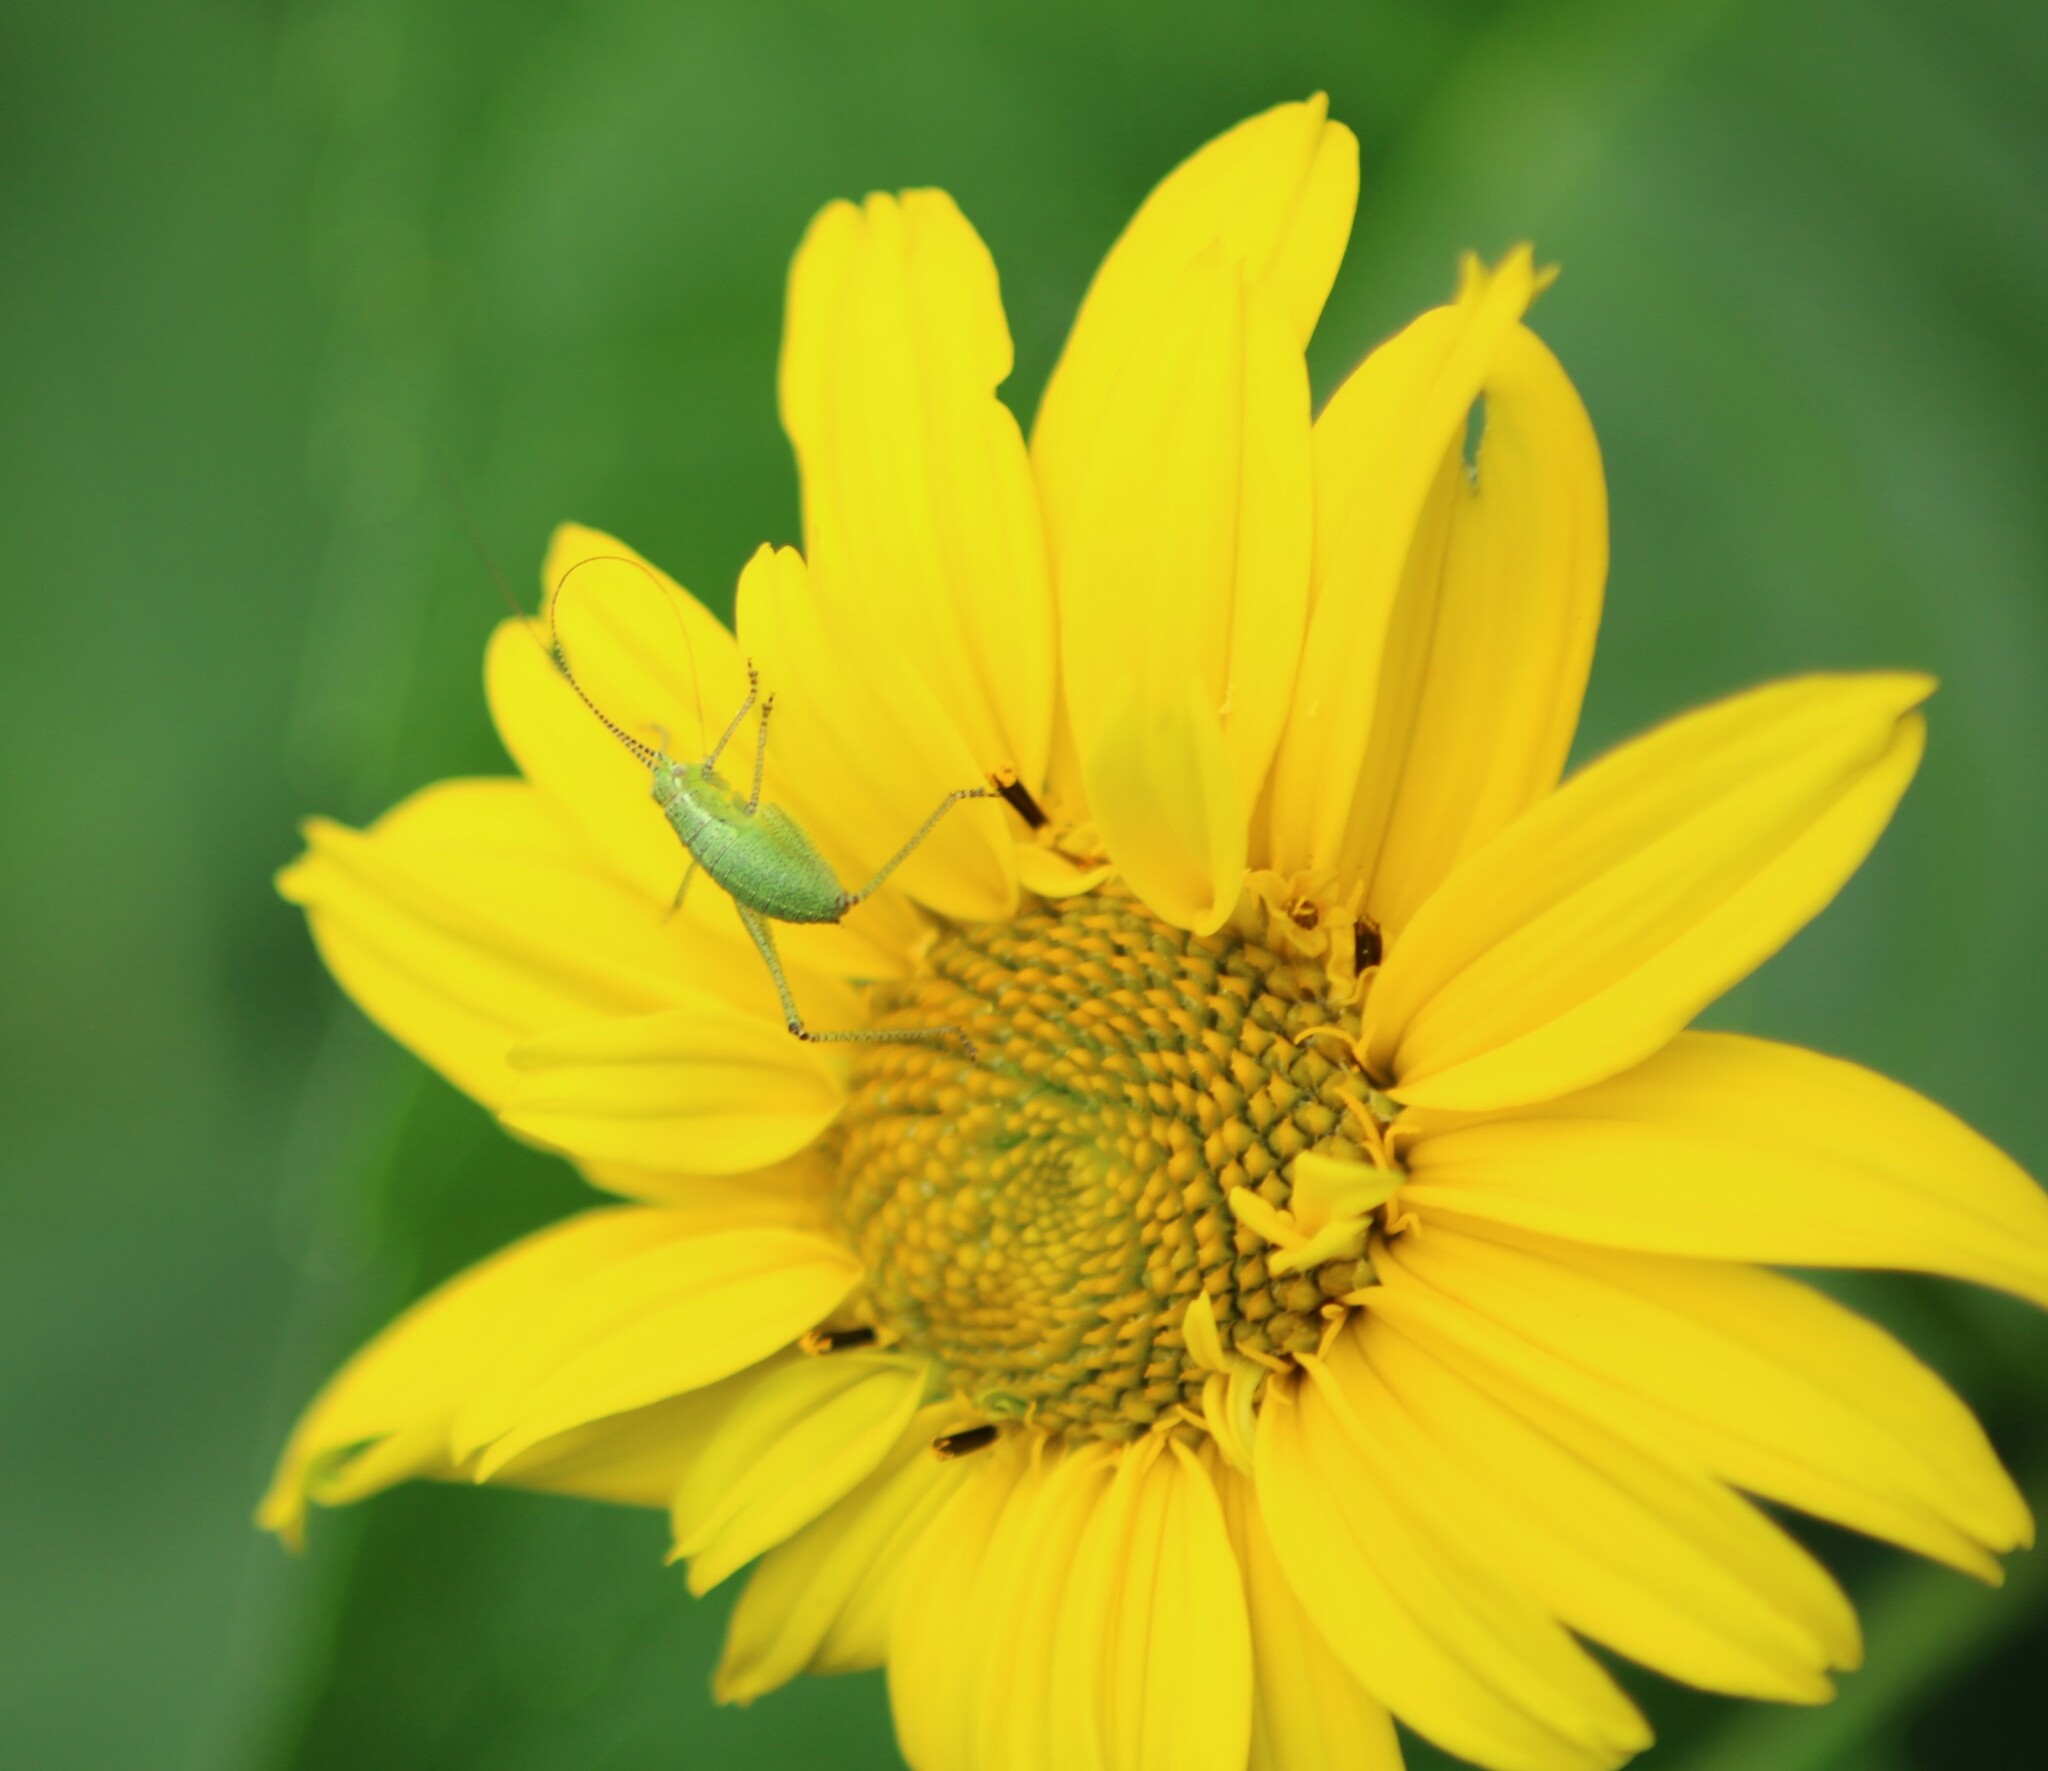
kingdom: Animalia
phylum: Arthropoda
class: Insecta
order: Orthoptera
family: Tettigoniidae
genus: Leptophyes
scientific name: Leptophyes punctatissima
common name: Speckled bush-cricket
